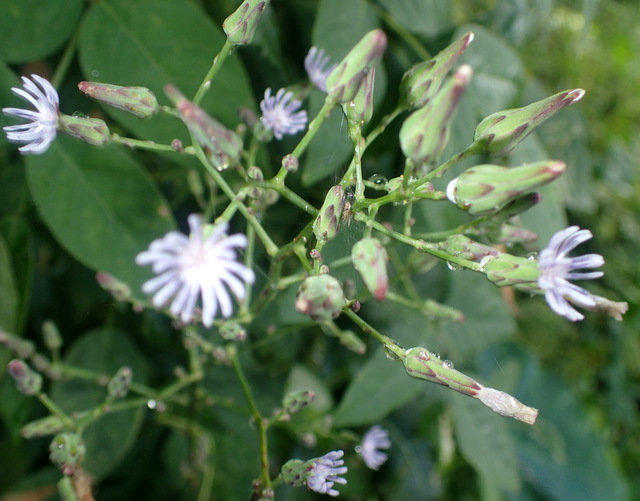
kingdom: Plantae
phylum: Tracheophyta
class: Magnoliopsida
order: Asterales
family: Asteraceae
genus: Lactuca
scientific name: Lactuca floridana
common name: Woodland lettuce
